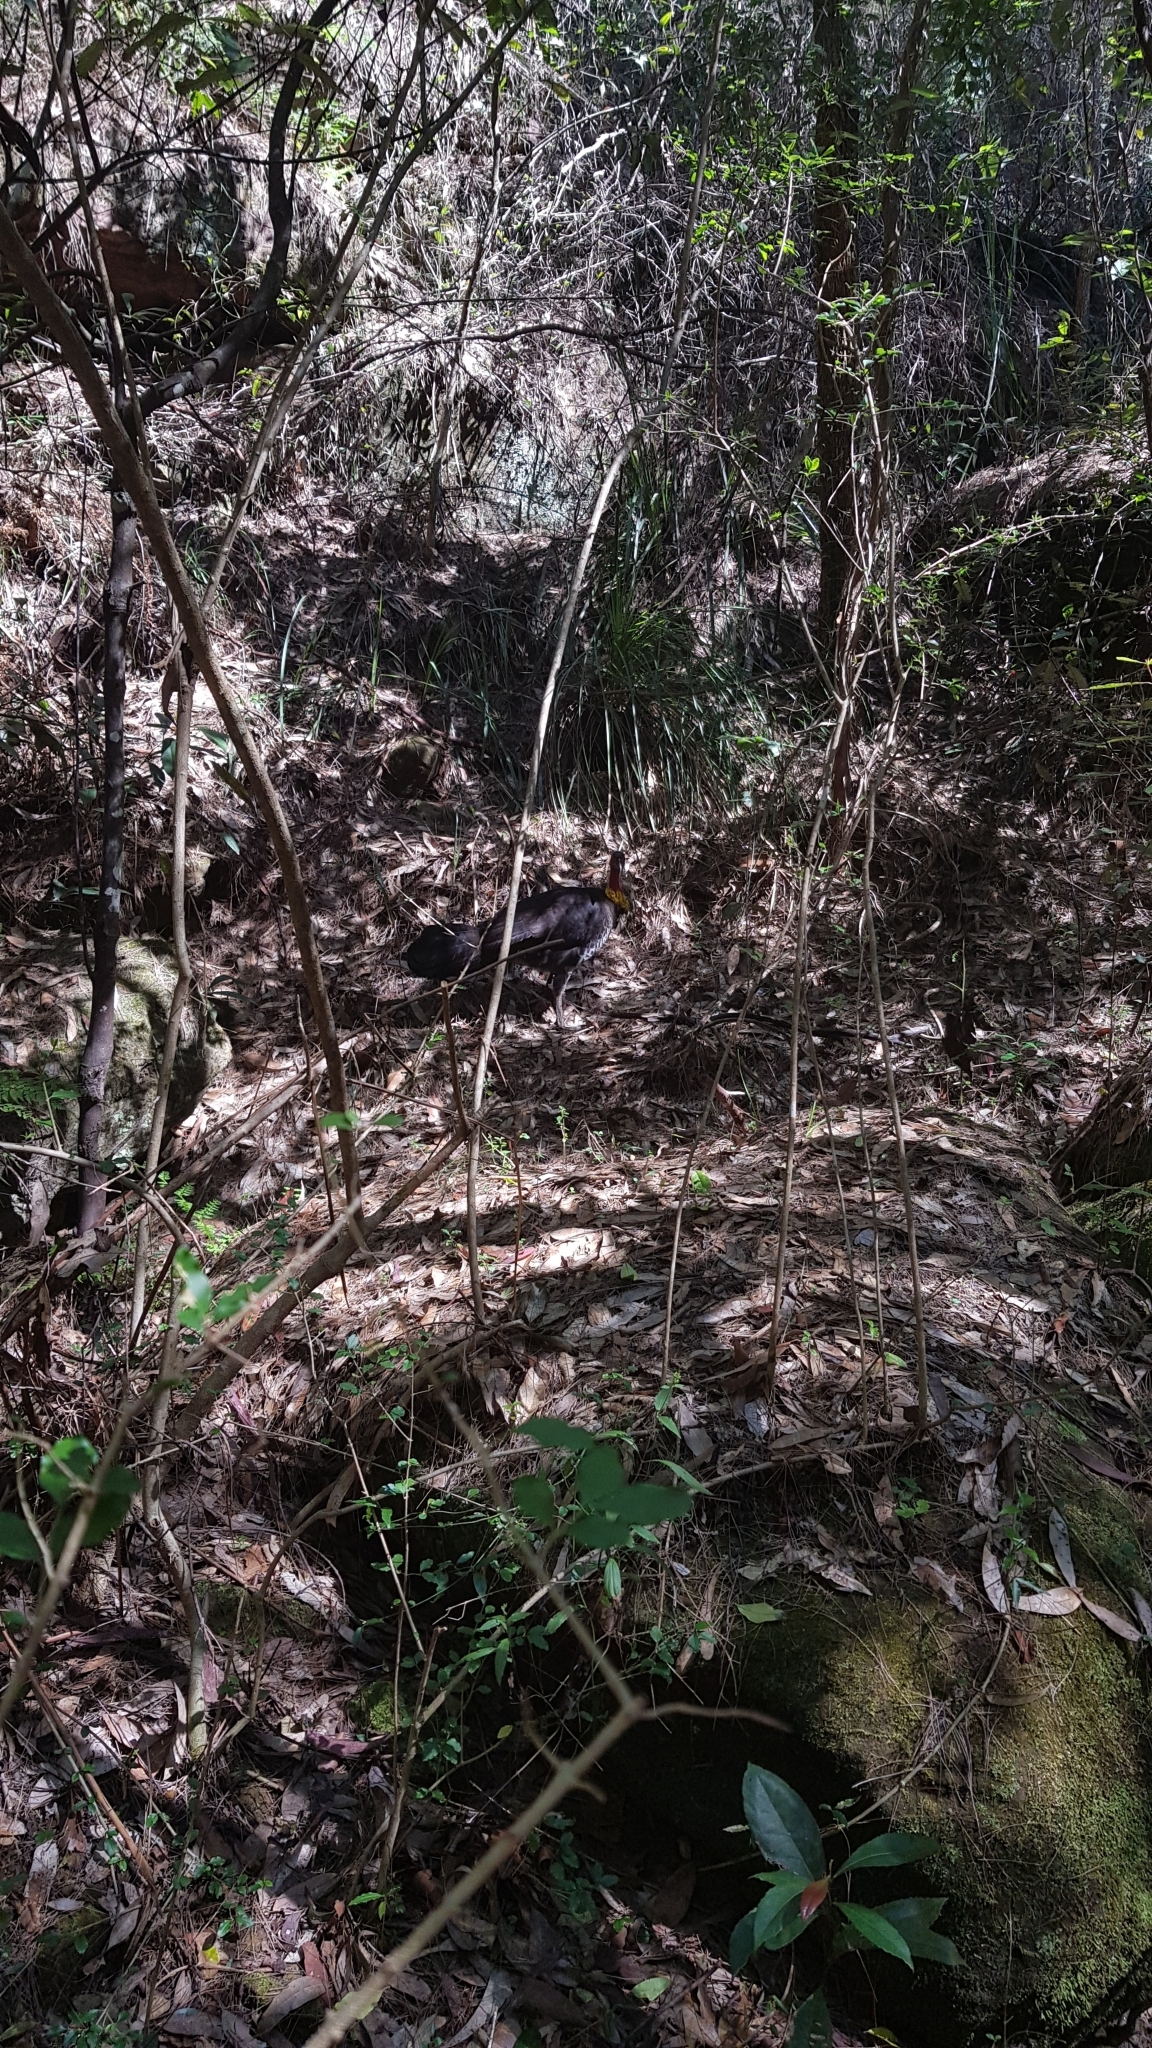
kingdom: Animalia
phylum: Chordata
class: Aves
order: Galliformes
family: Megapodiidae
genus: Alectura
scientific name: Alectura lathami
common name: Australian brushturkey
